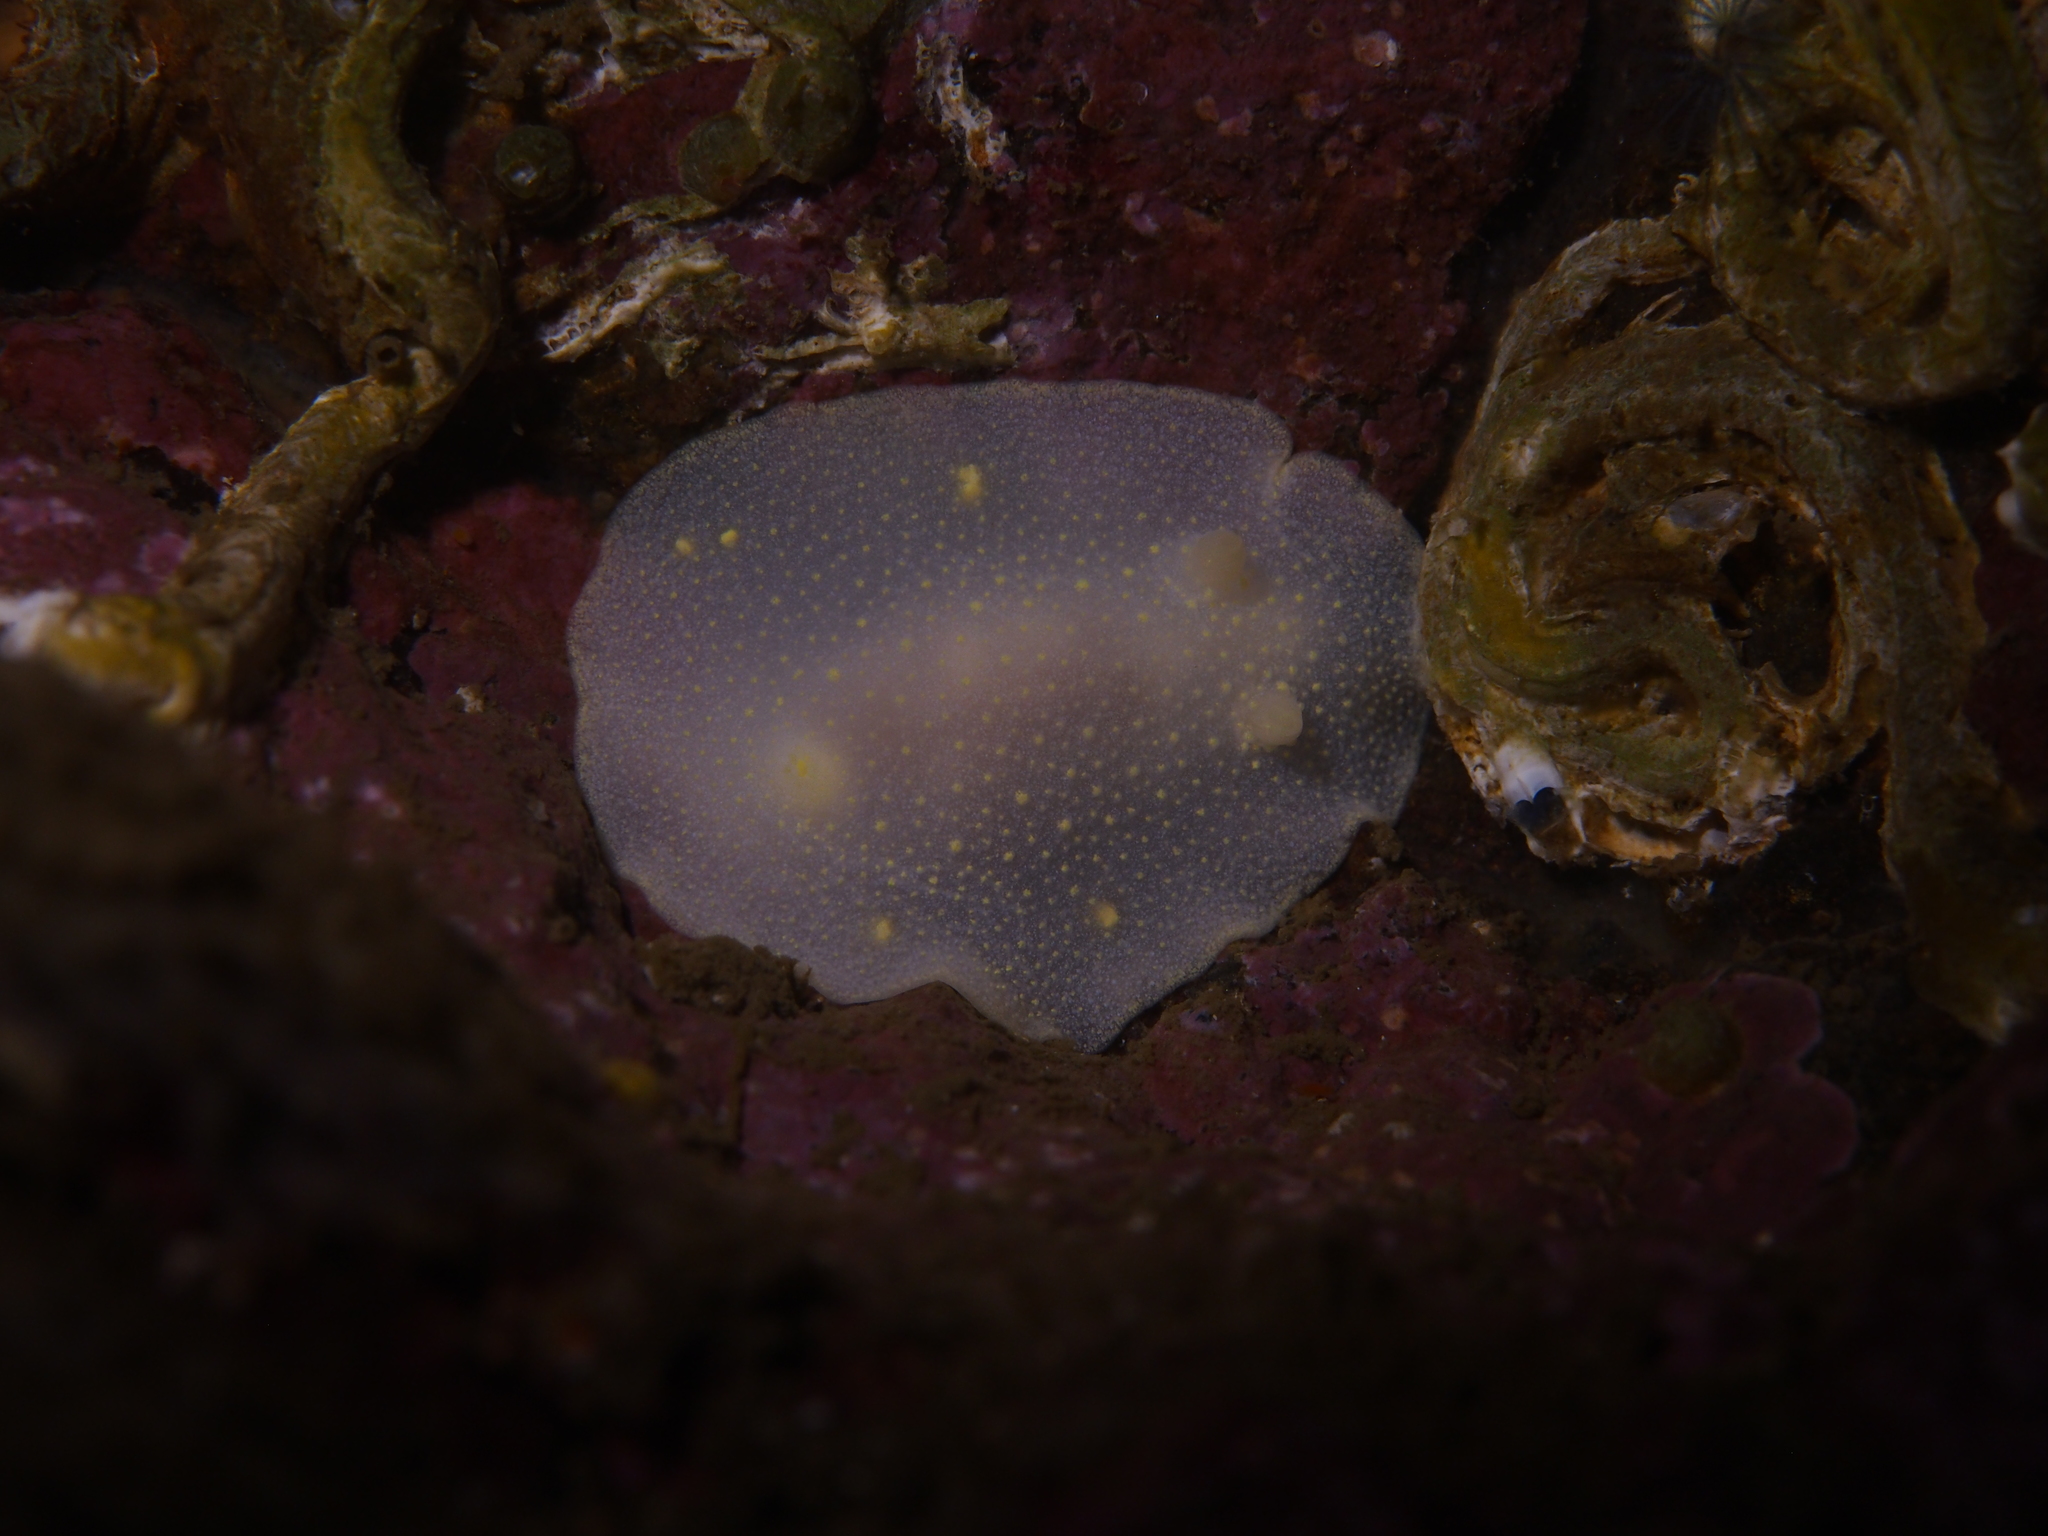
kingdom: Animalia
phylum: Mollusca
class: Gastropoda
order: Nudibranchia
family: Cadlinidae
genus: Cadlina
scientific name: Cadlina laevis
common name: White atlantic cadlina
